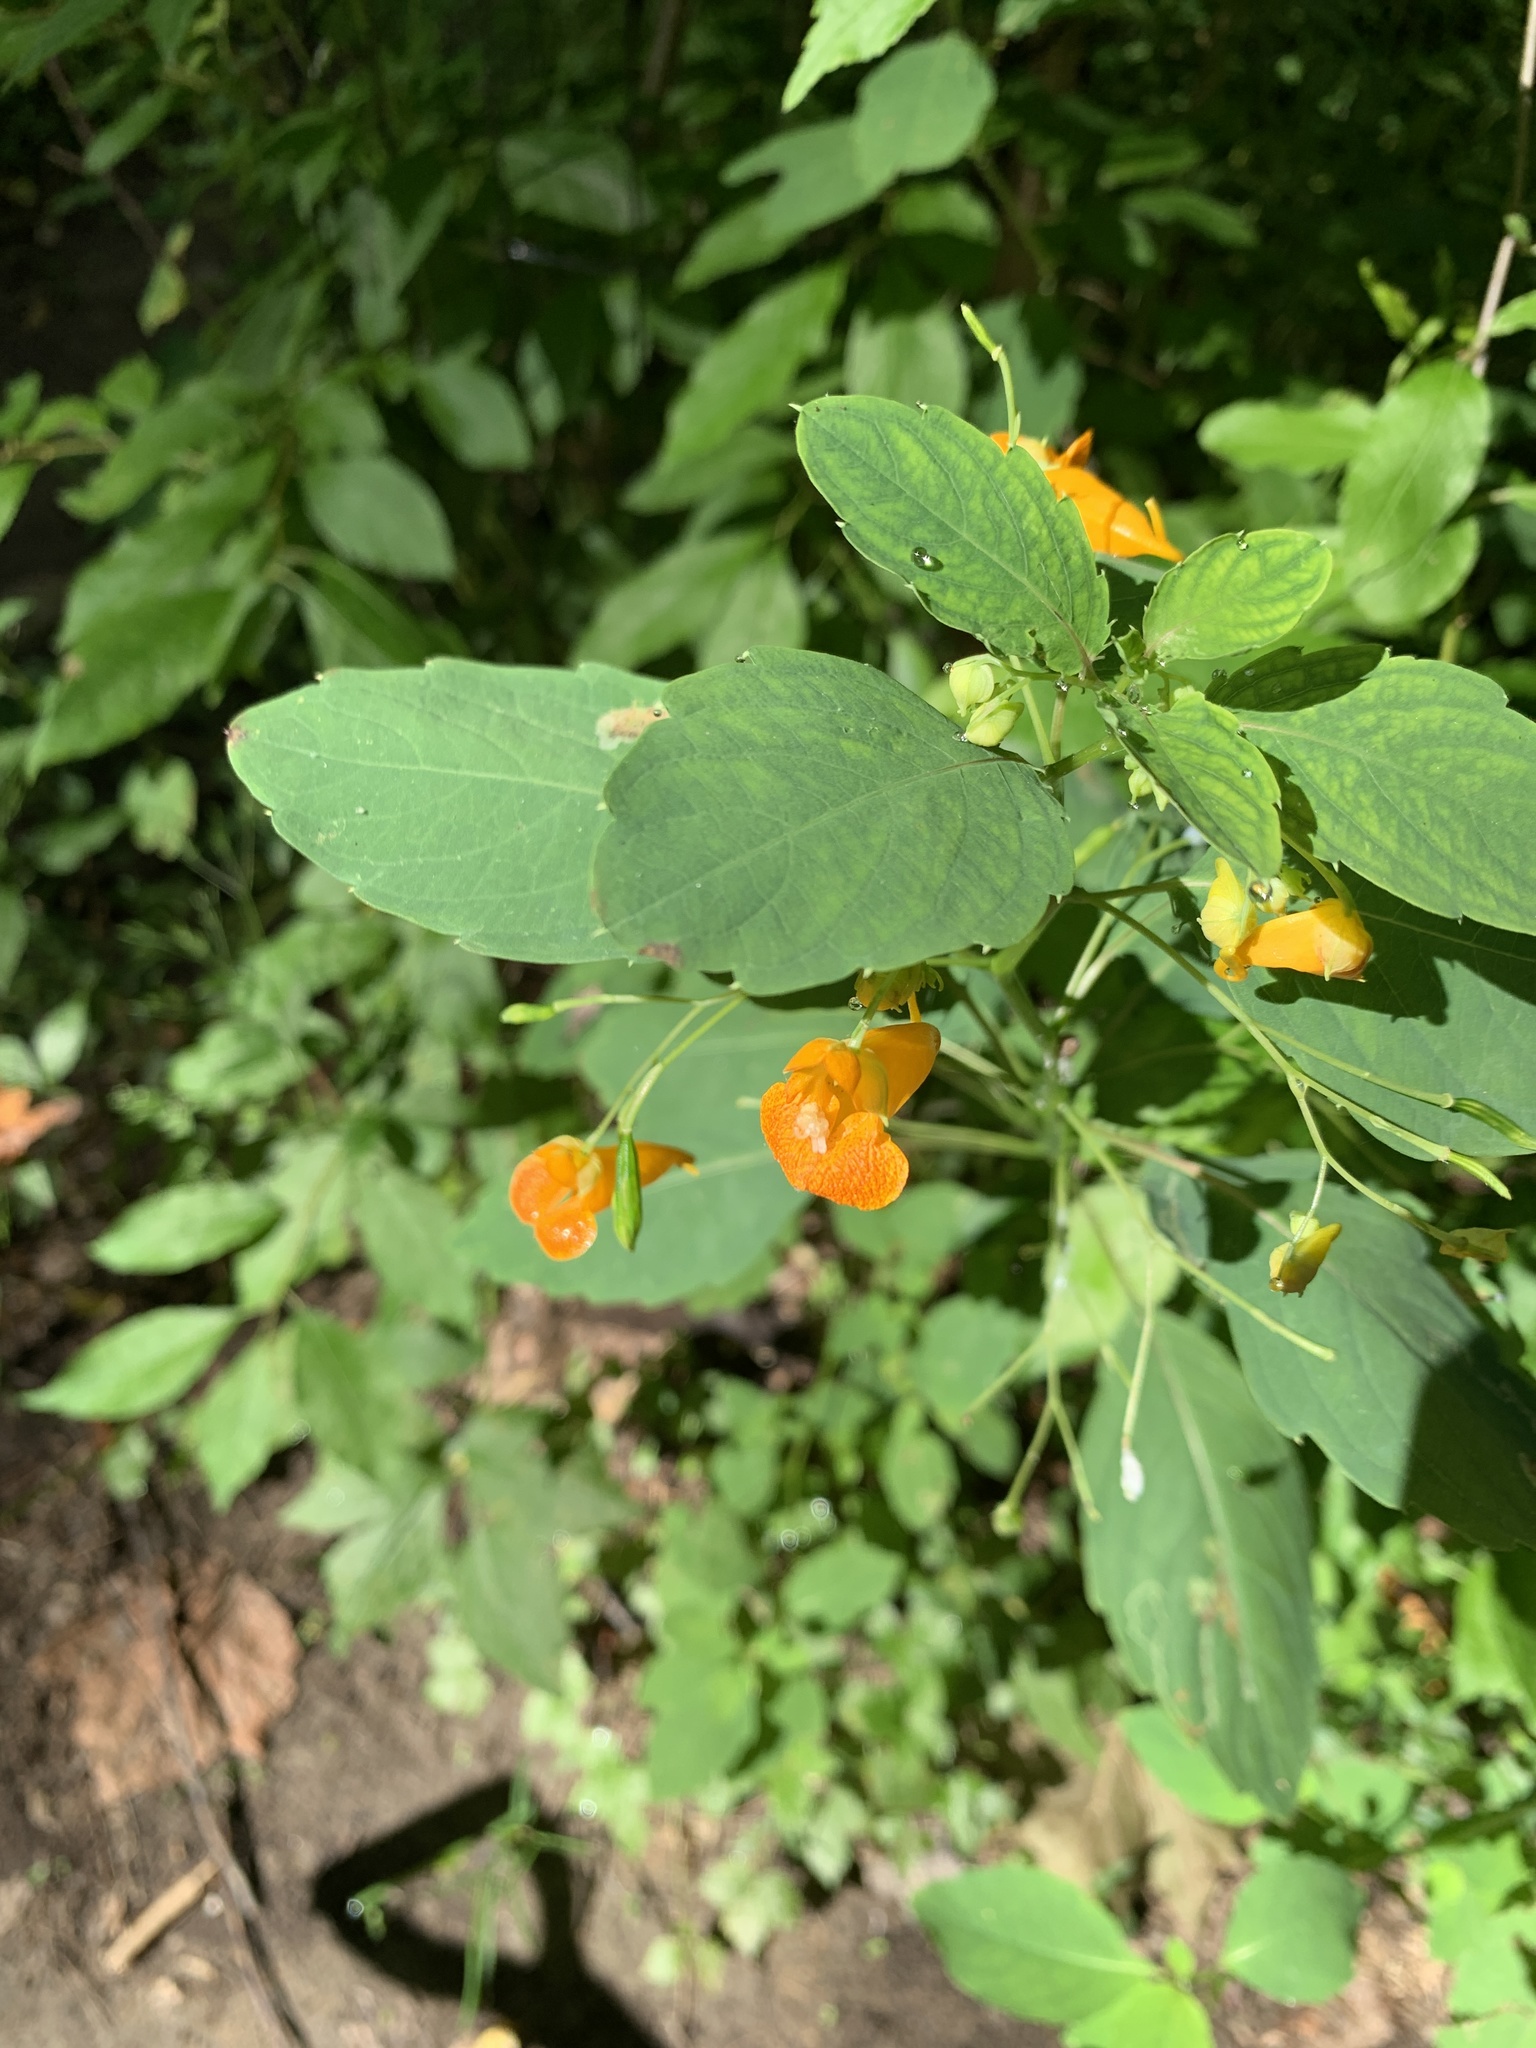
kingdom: Plantae
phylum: Tracheophyta
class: Magnoliopsida
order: Ericales
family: Balsaminaceae
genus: Impatiens
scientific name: Impatiens capensis
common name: Orange balsam
